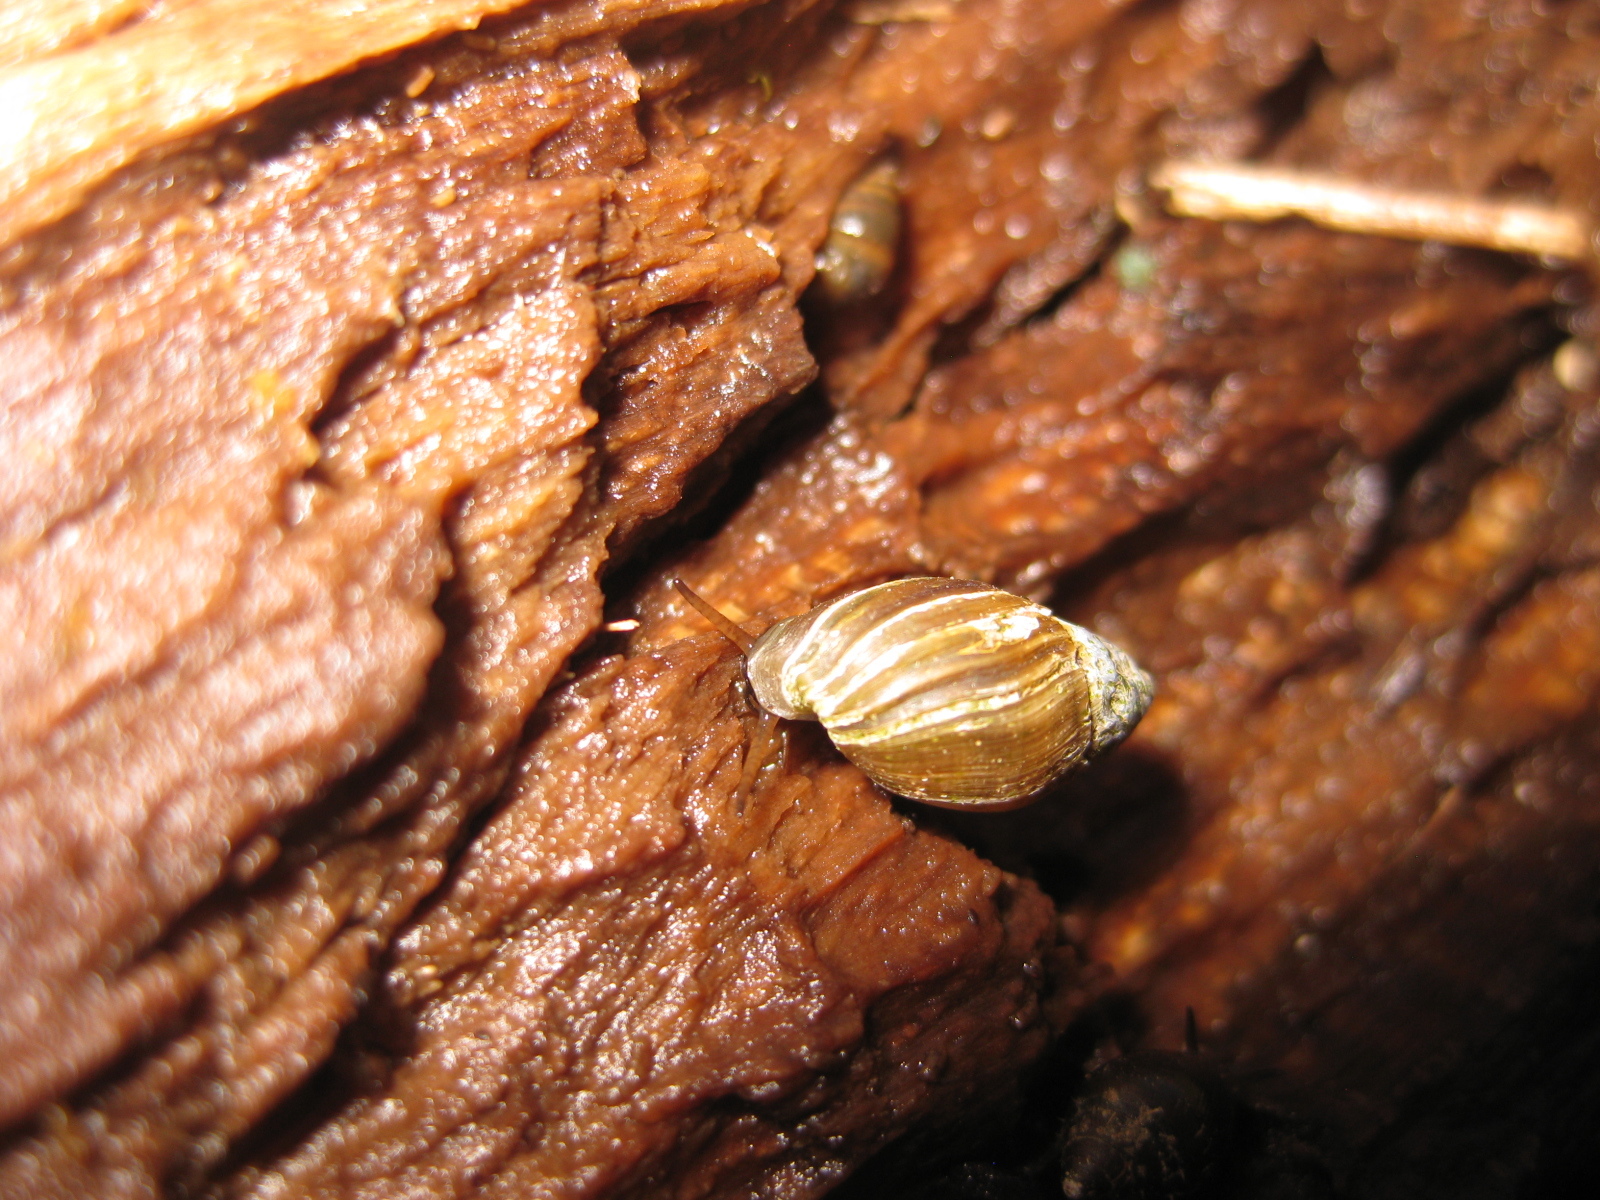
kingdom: Animalia
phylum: Mollusca
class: Gastropoda
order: Ellobiida
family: Ellobiidae
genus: Pleuroloba
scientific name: Pleuroloba costellaris
